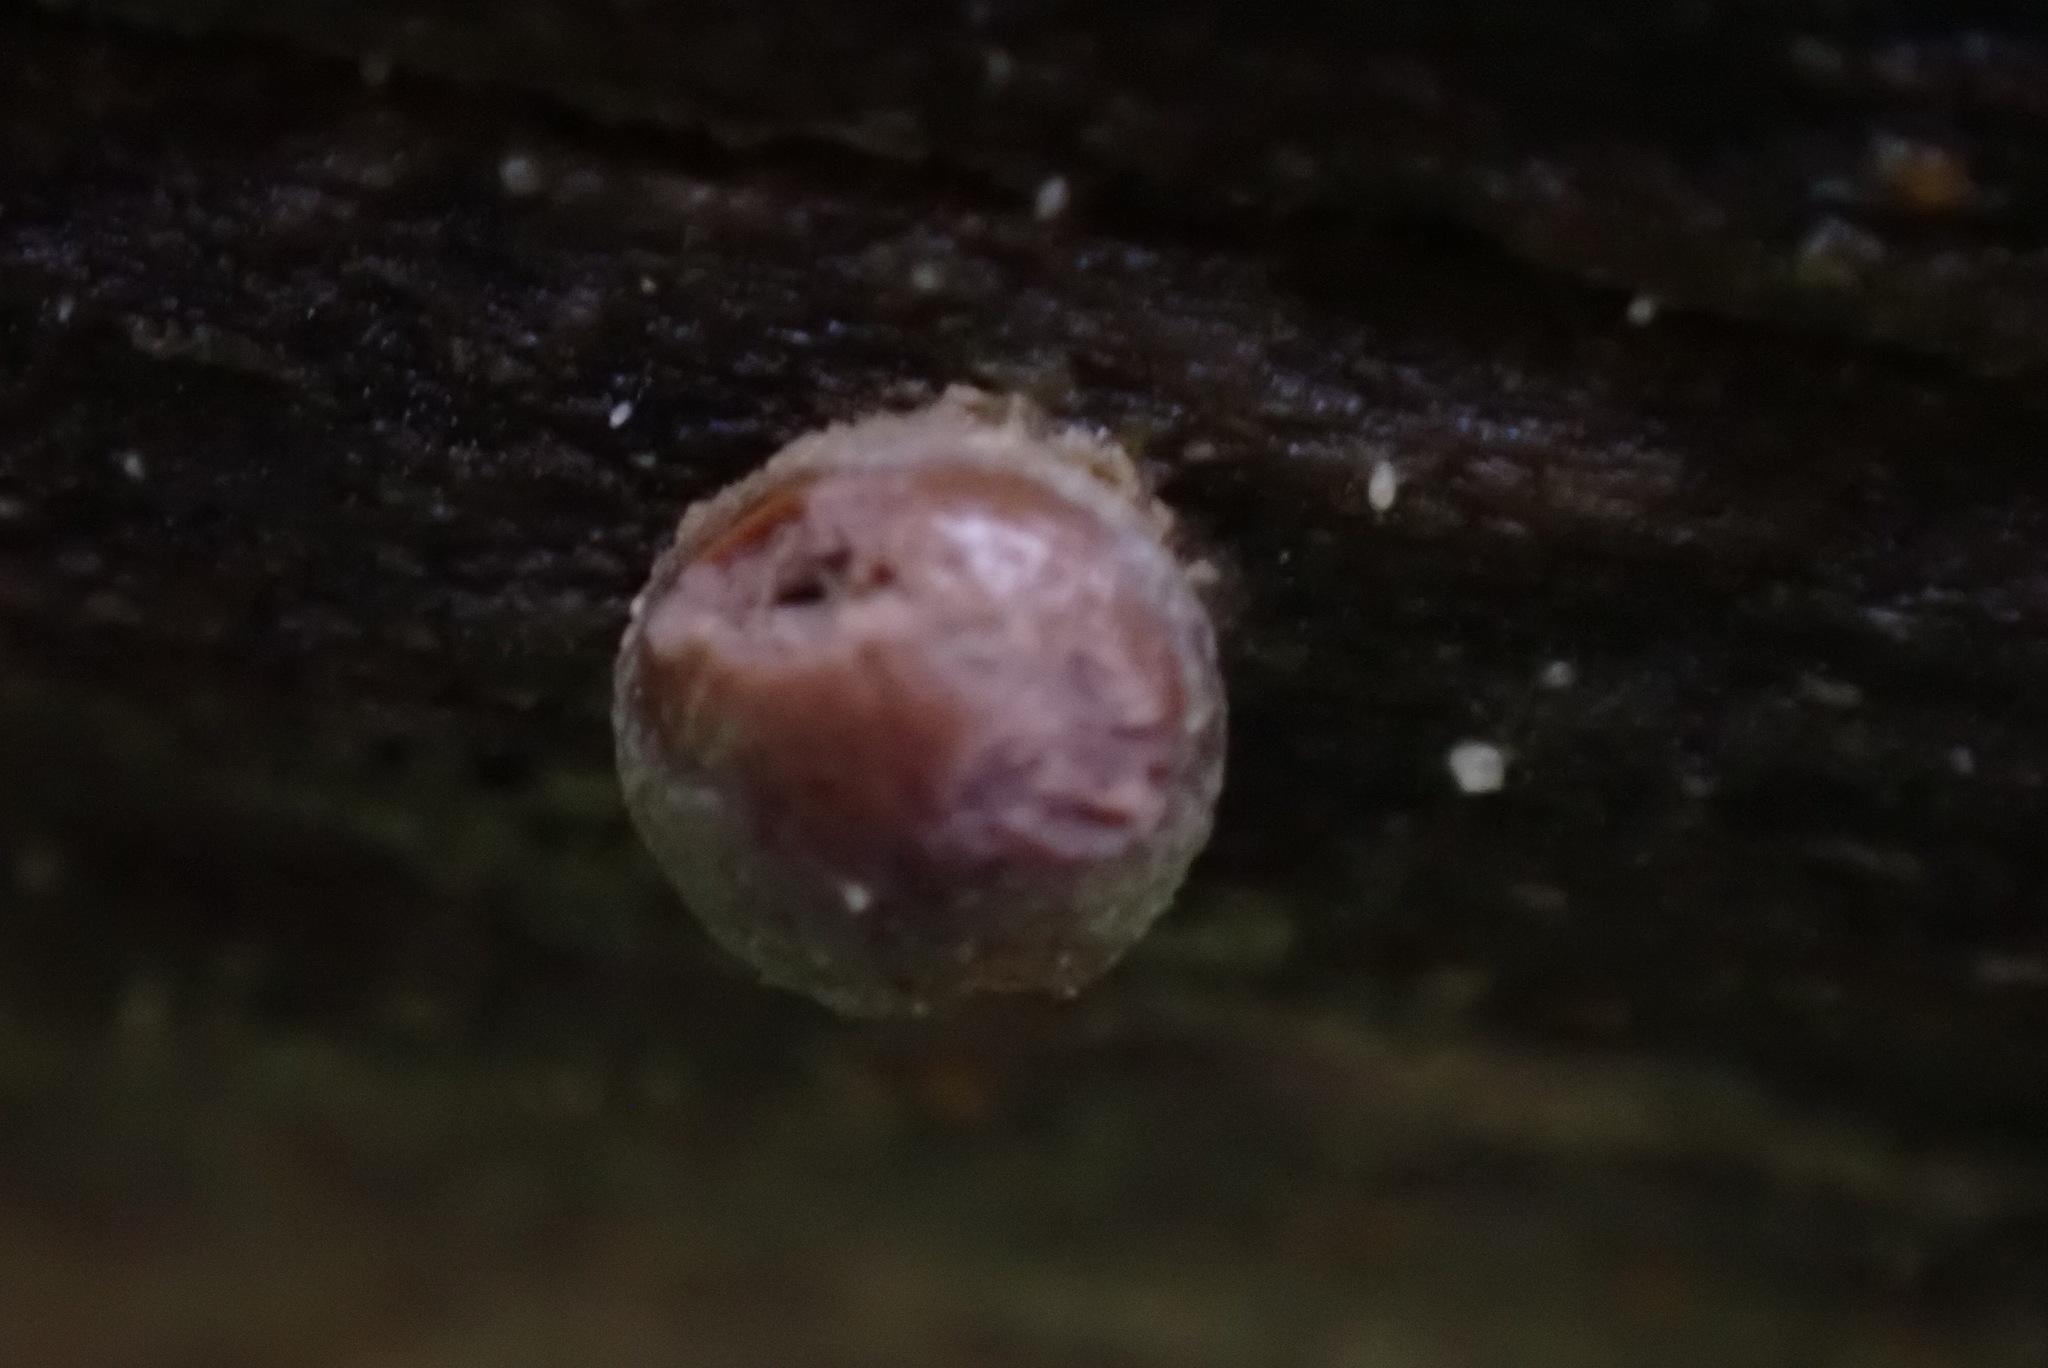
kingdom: Protozoa
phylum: Mycetozoa
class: Myxomycetes
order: Cribrariales
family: Tubiferaceae
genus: Lycogala
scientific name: Lycogala
